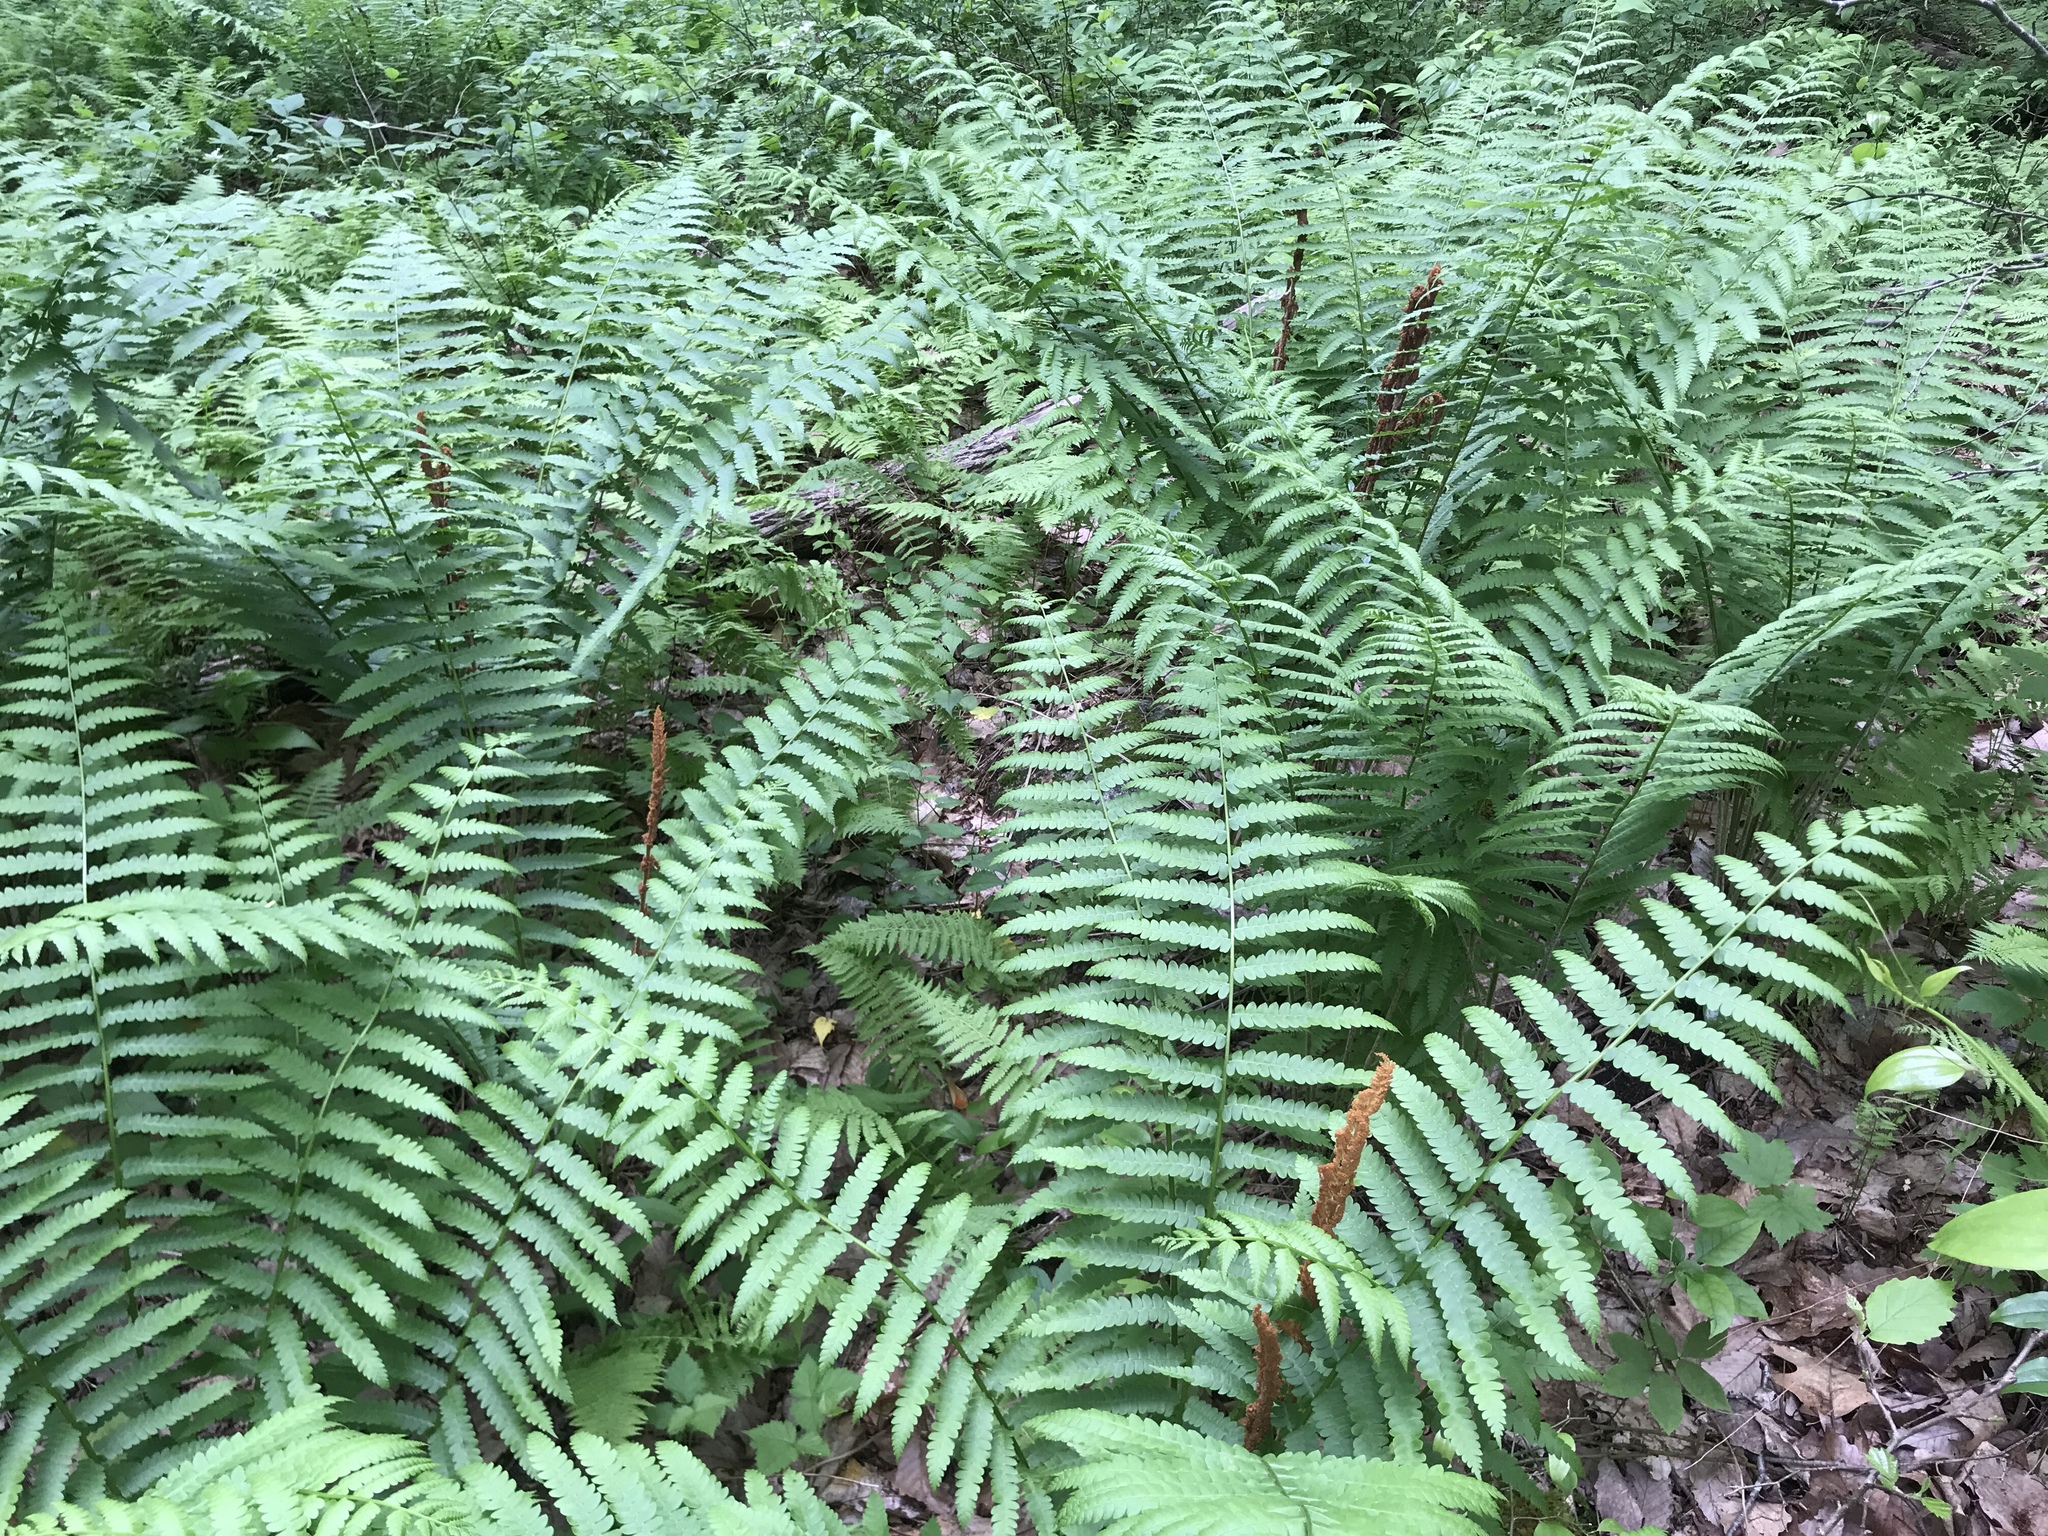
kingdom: Plantae
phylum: Tracheophyta
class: Polypodiopsida
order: Osmundales
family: Osmundaceae
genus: Osmundastrum
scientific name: Osmundastrum cinnamomeum
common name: Cinnamon fern
